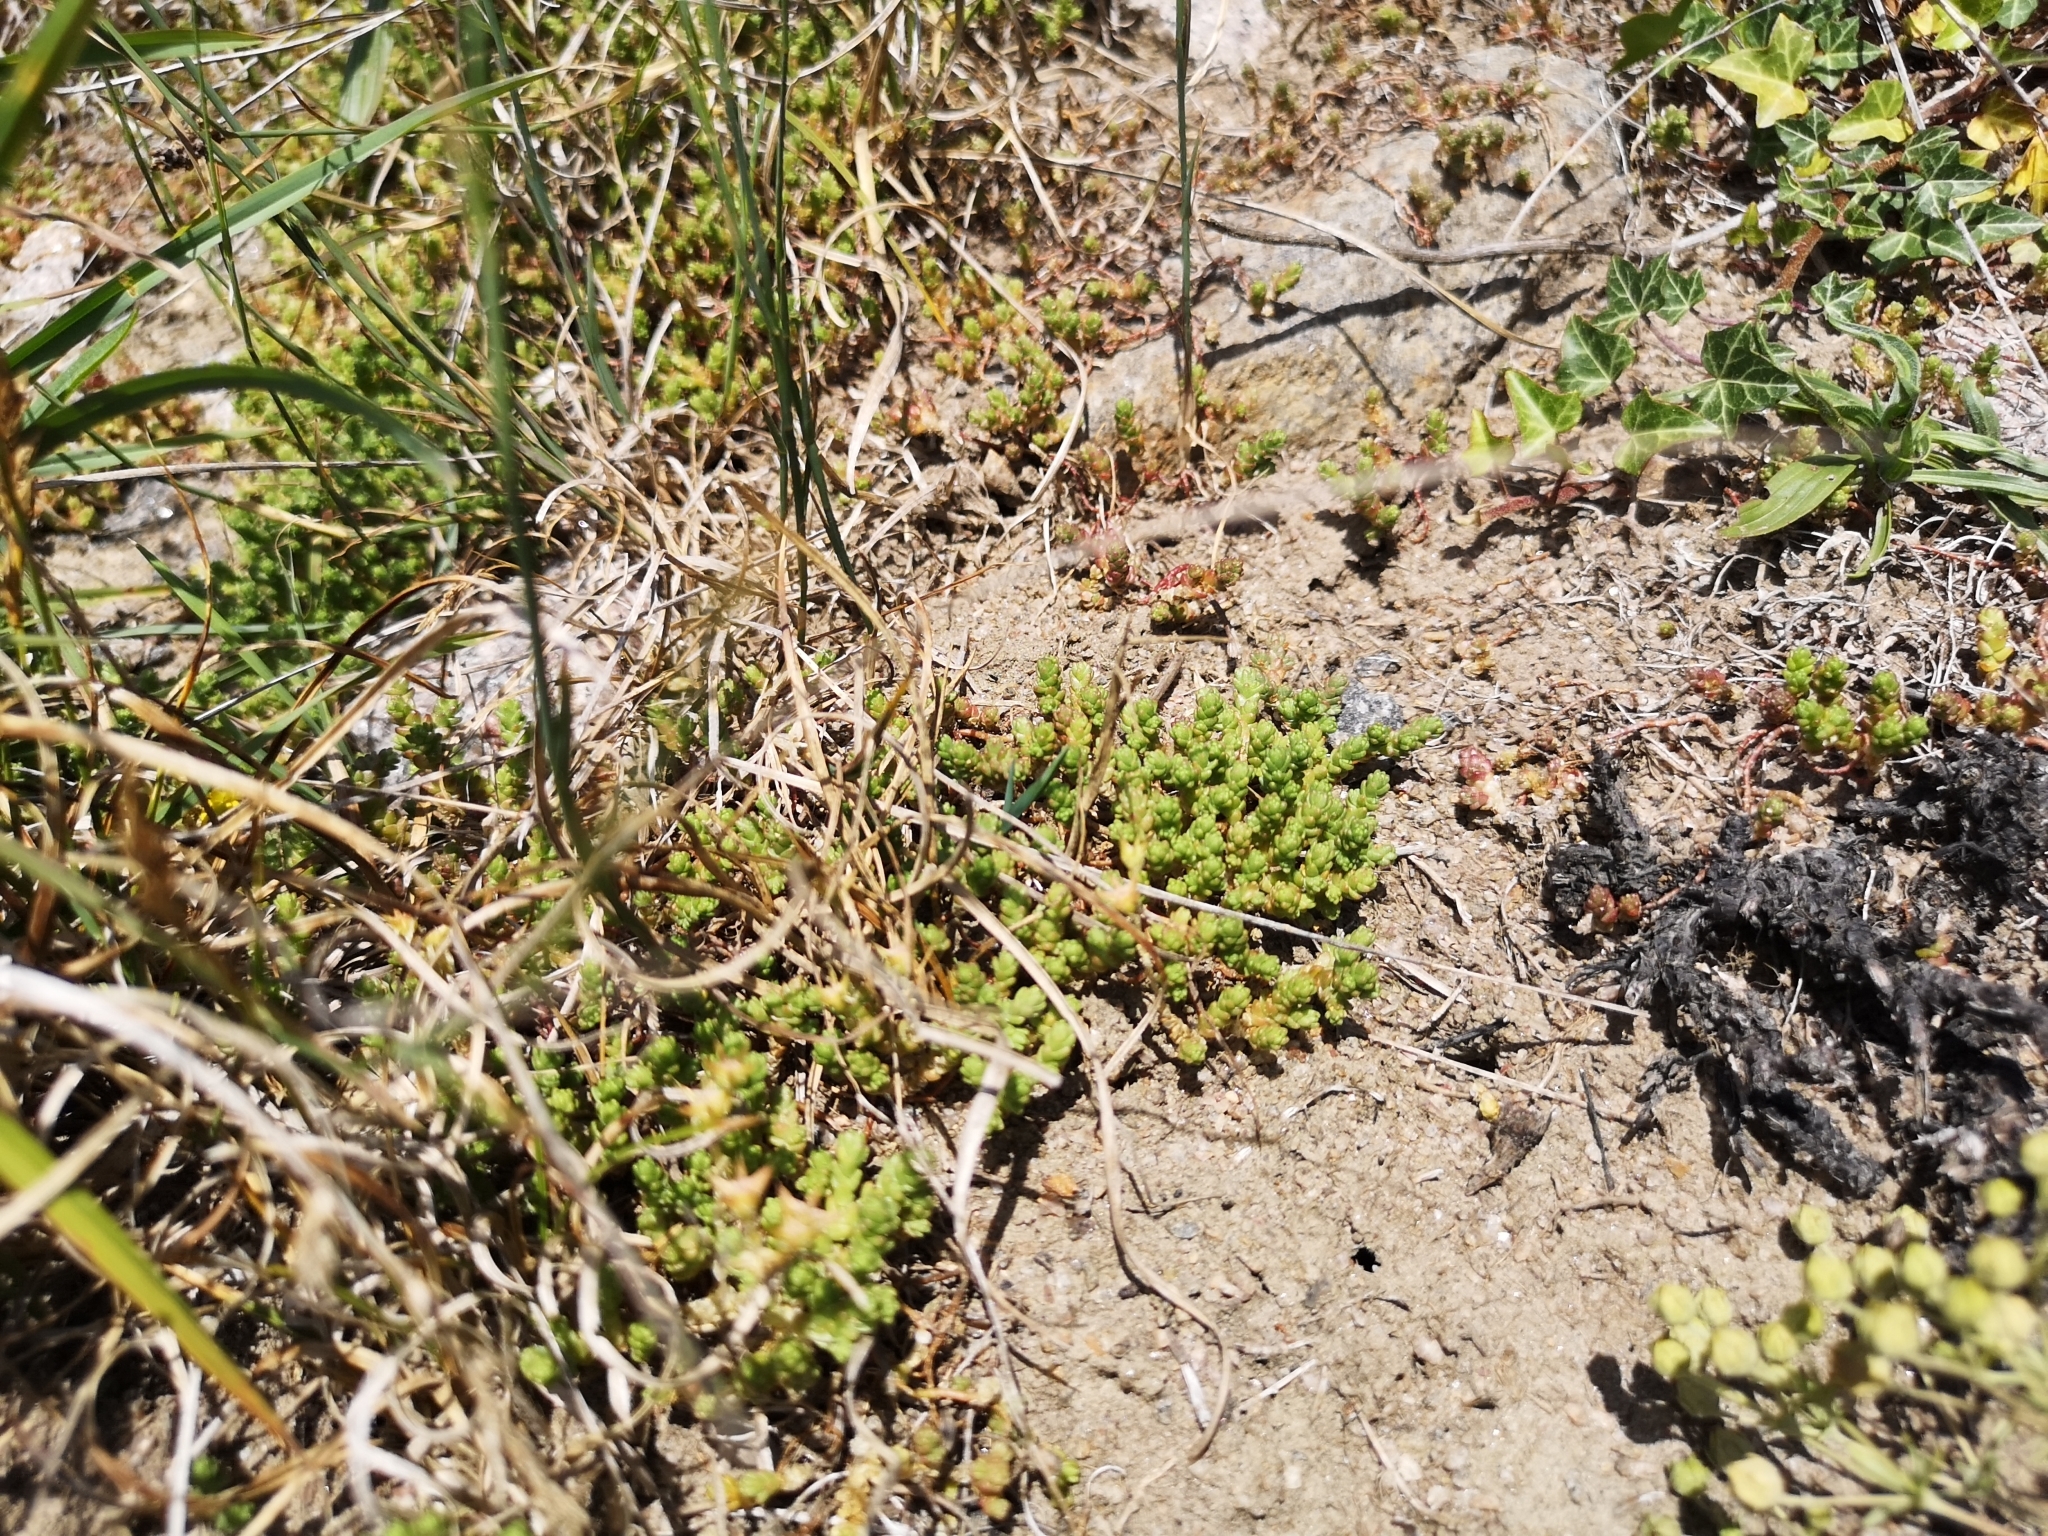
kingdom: Plantae
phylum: Tracheophyta
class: Magnoliopsida
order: Saxifragales
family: Crassulaceae
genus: Sedum
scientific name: Sedum acre
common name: Biting stonecrop
